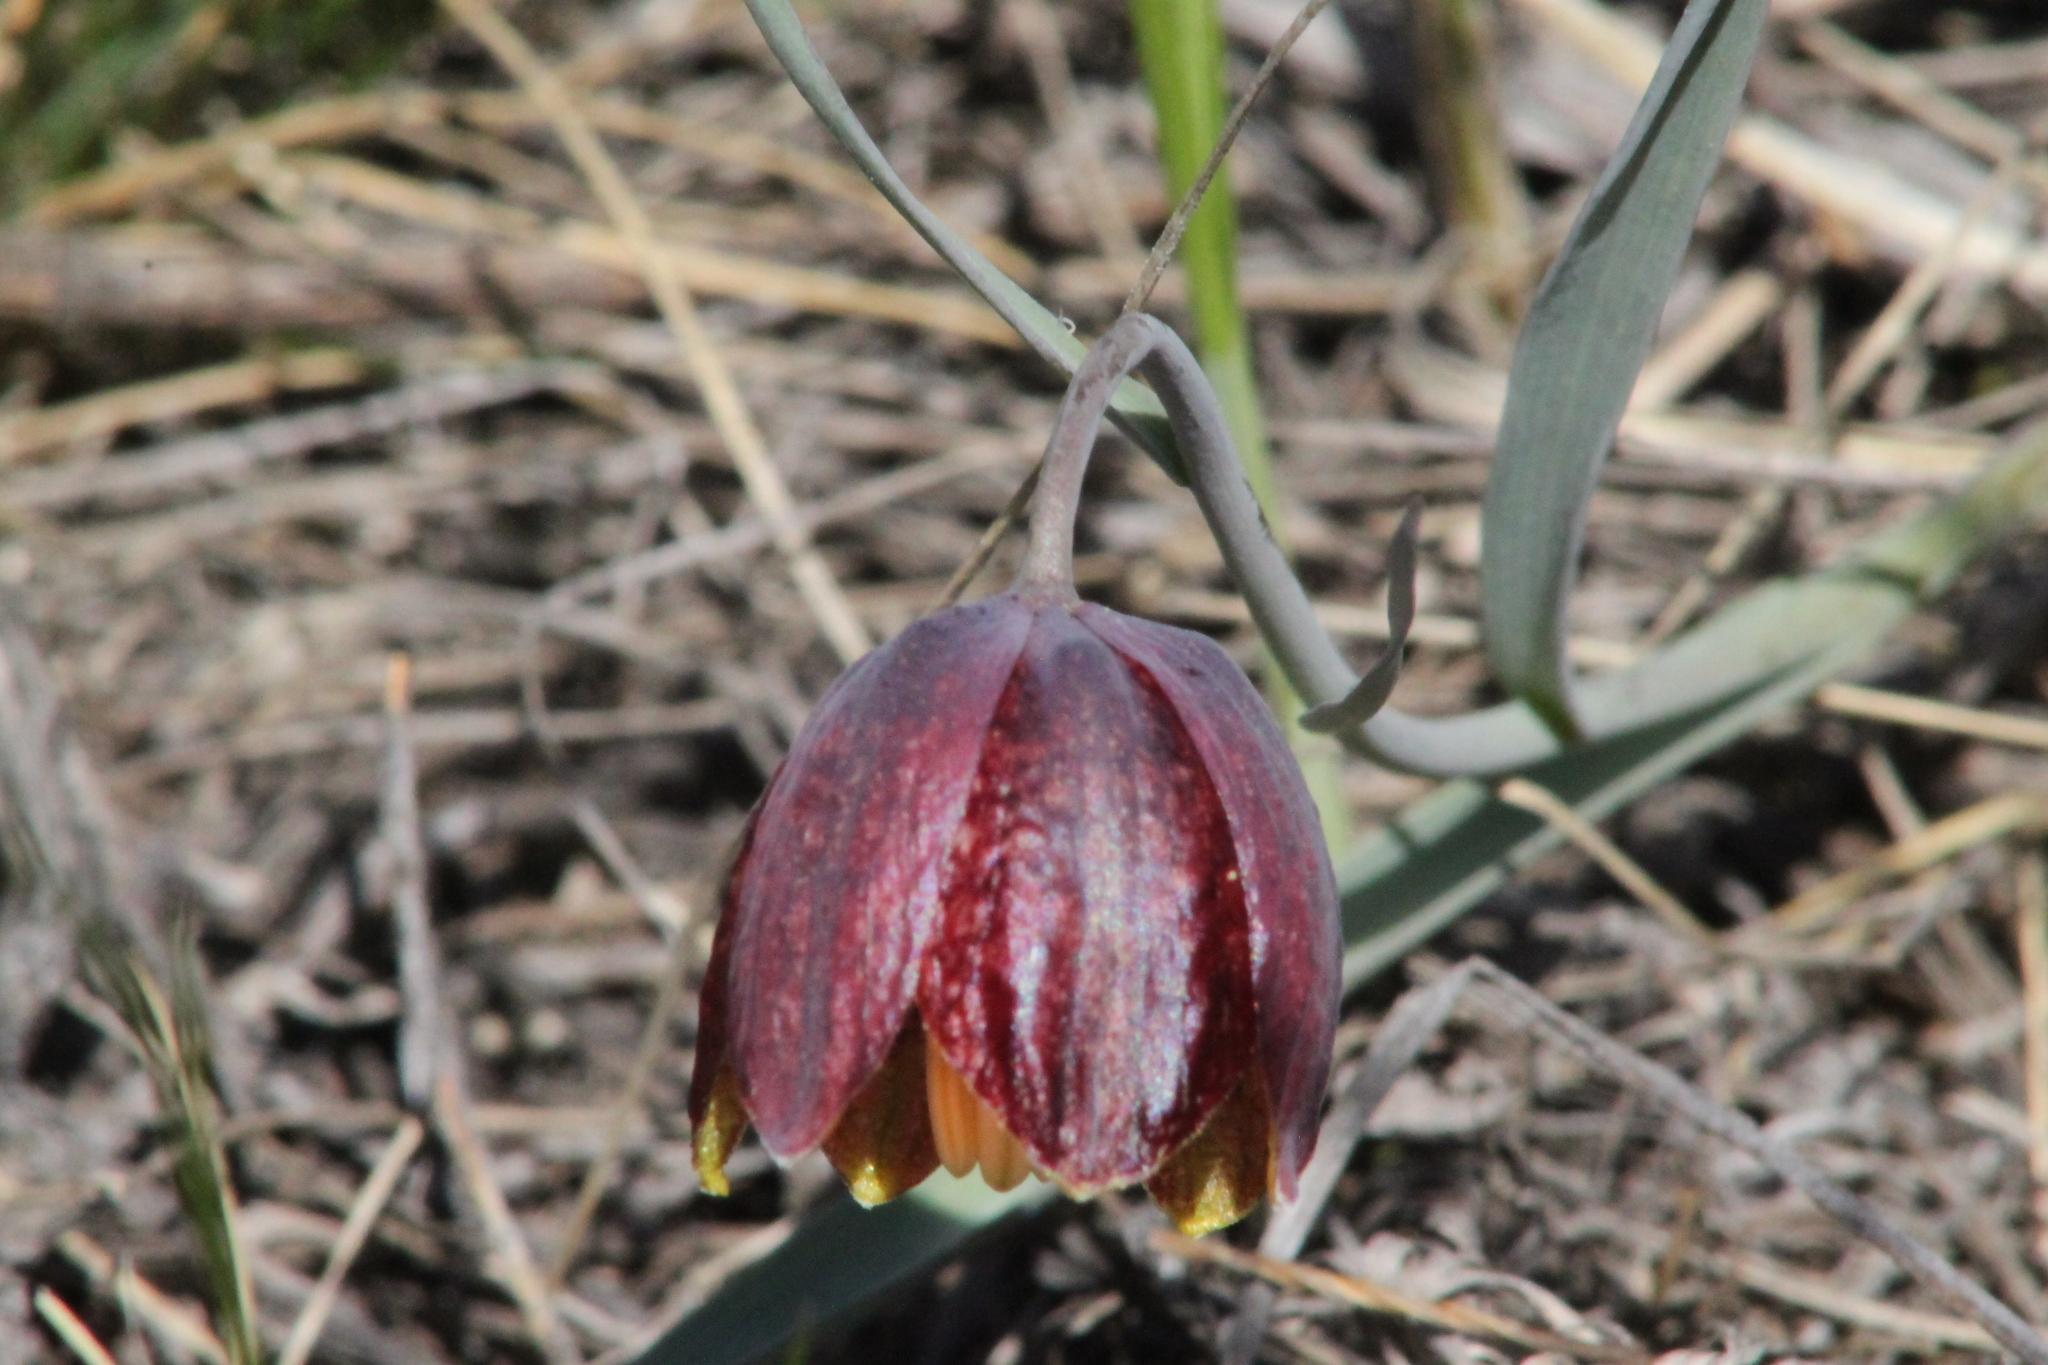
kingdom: Plantae
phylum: Tracheophyta
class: Liliopsida
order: Liliales
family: Liliaceae
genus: Fritillaria
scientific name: Fritillaria meleagroides
